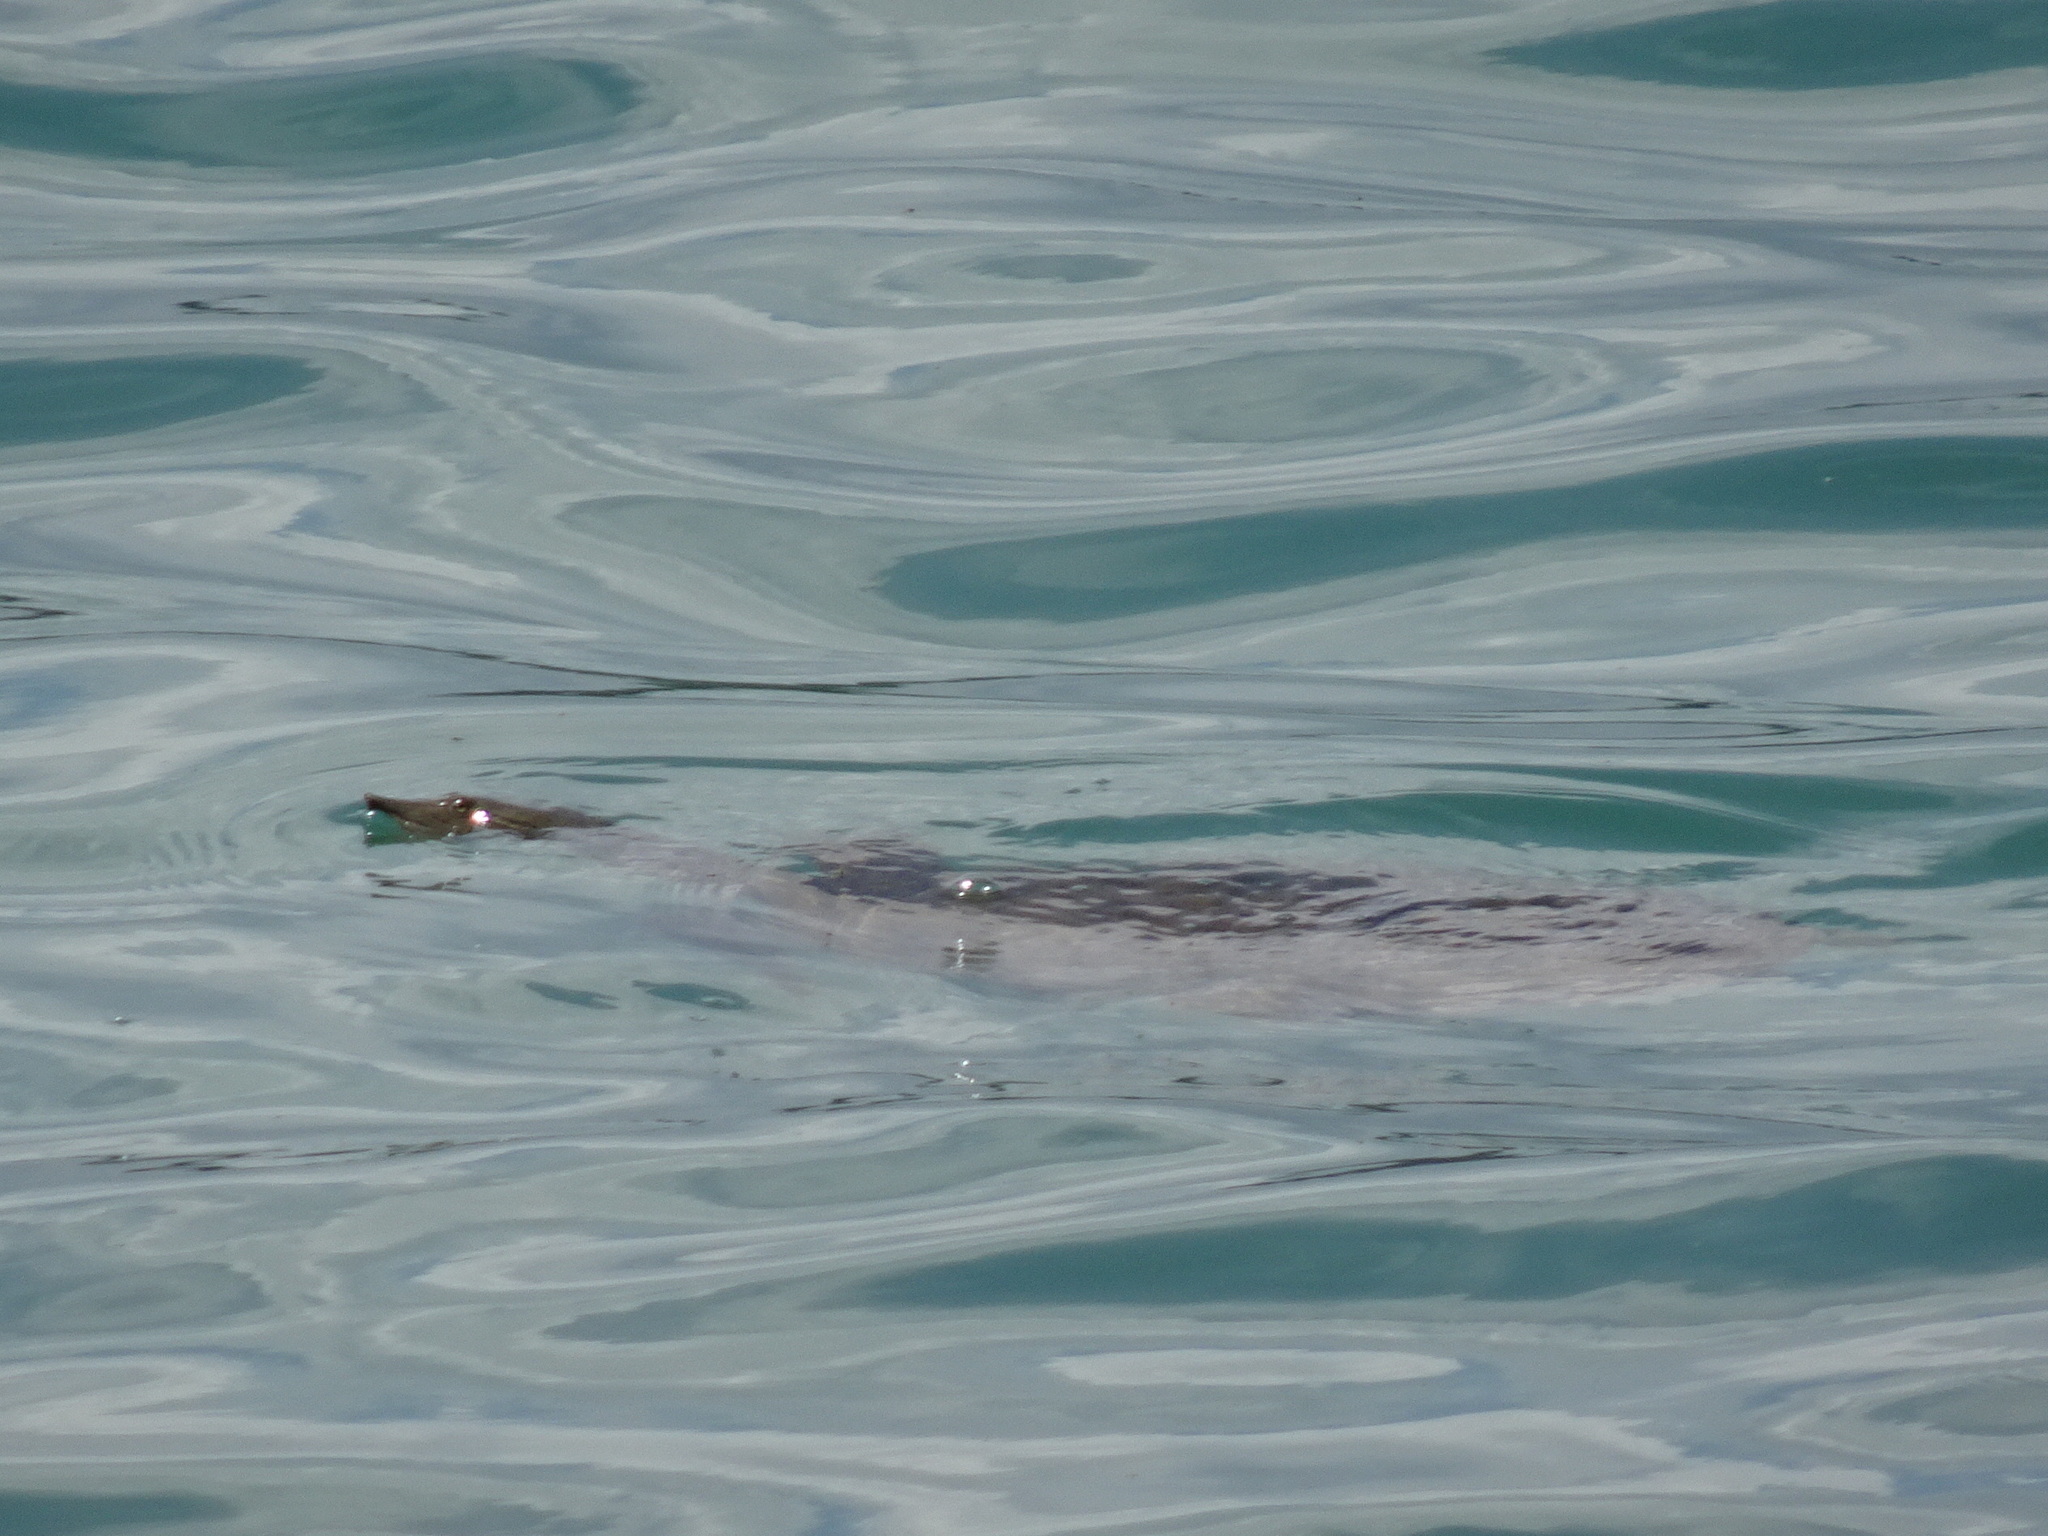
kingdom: Animalia
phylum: Chordata
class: Testudines
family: Trionychidae
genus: Apalone
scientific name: Apalone spinifera
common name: Spiny softshell turtle
